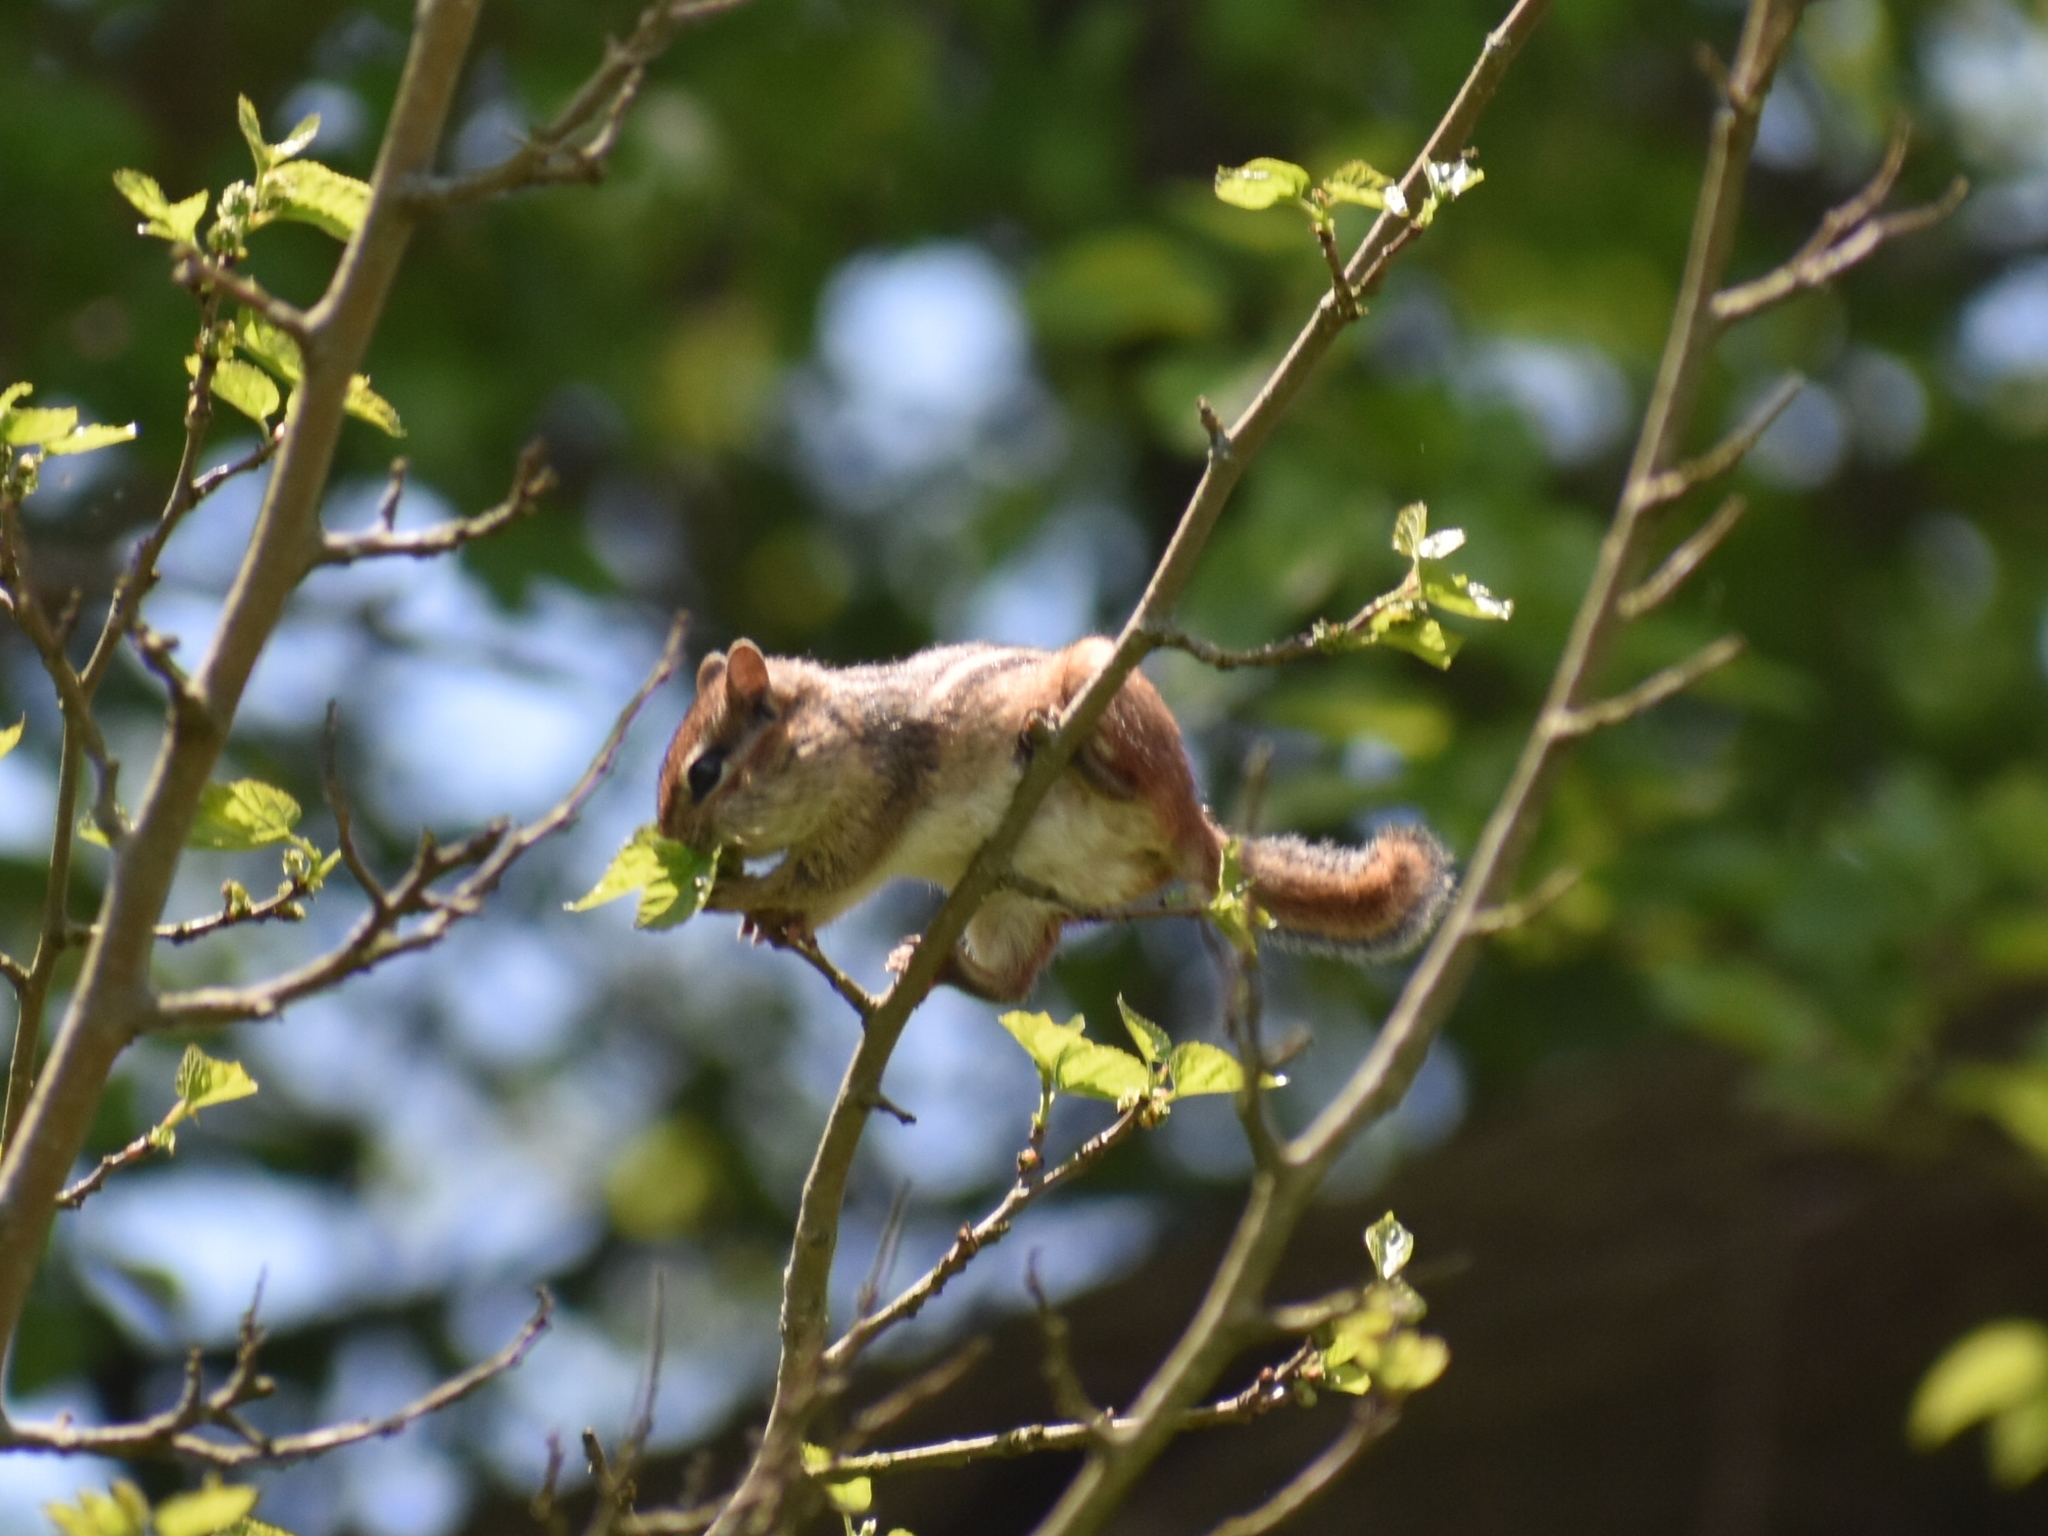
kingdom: Animalia
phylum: Chordata
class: Mammalia
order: Rodentia
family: Sciuridae
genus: Tamias
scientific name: Tamias striatus
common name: Eastern chipmunk
